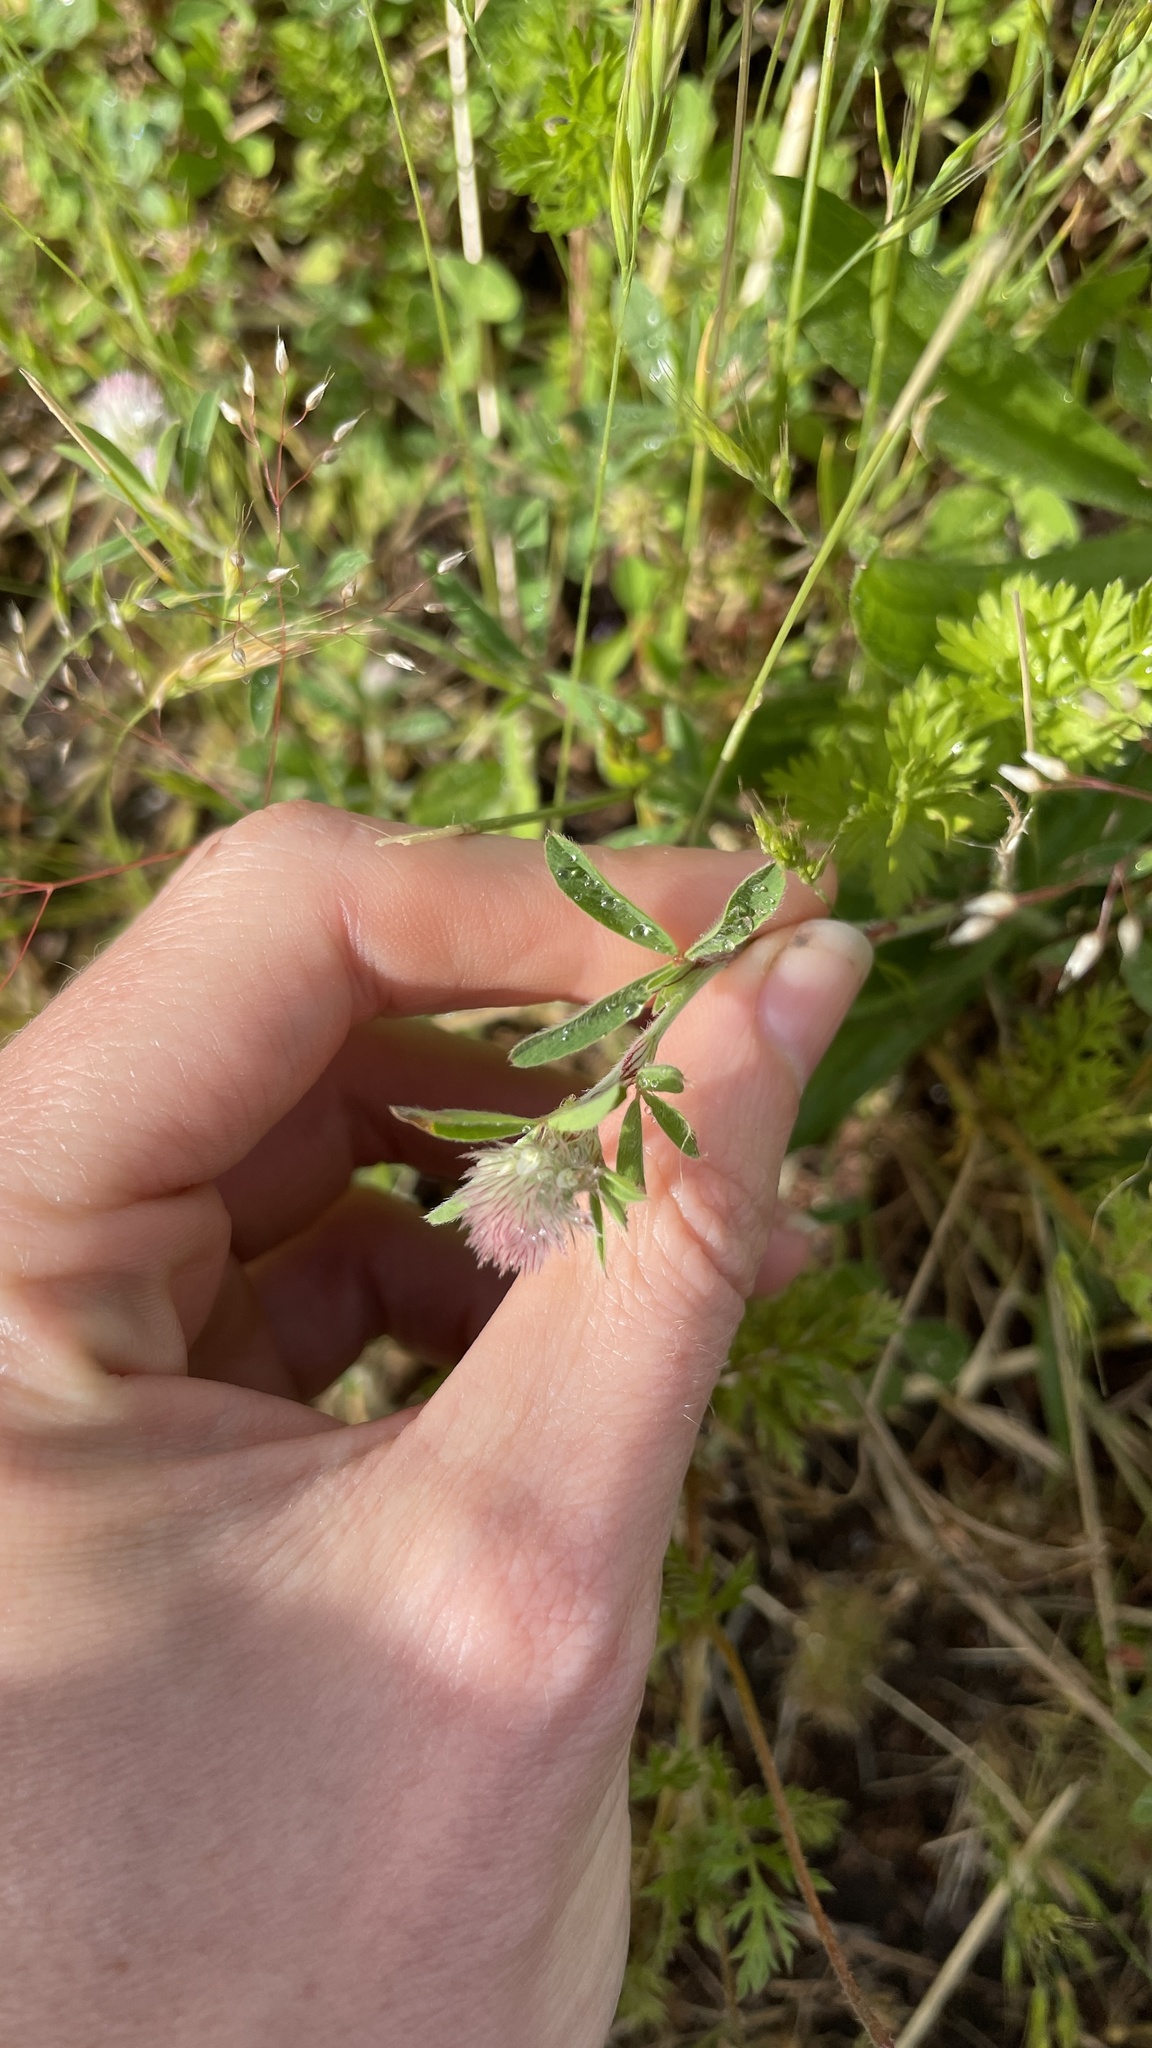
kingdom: Plantae
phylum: Tracheophyta
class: Magnoliopsida
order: Fabales
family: Fabaceae
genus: Trifolium
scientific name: Trifolium arvense
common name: Hare's-foot clover
